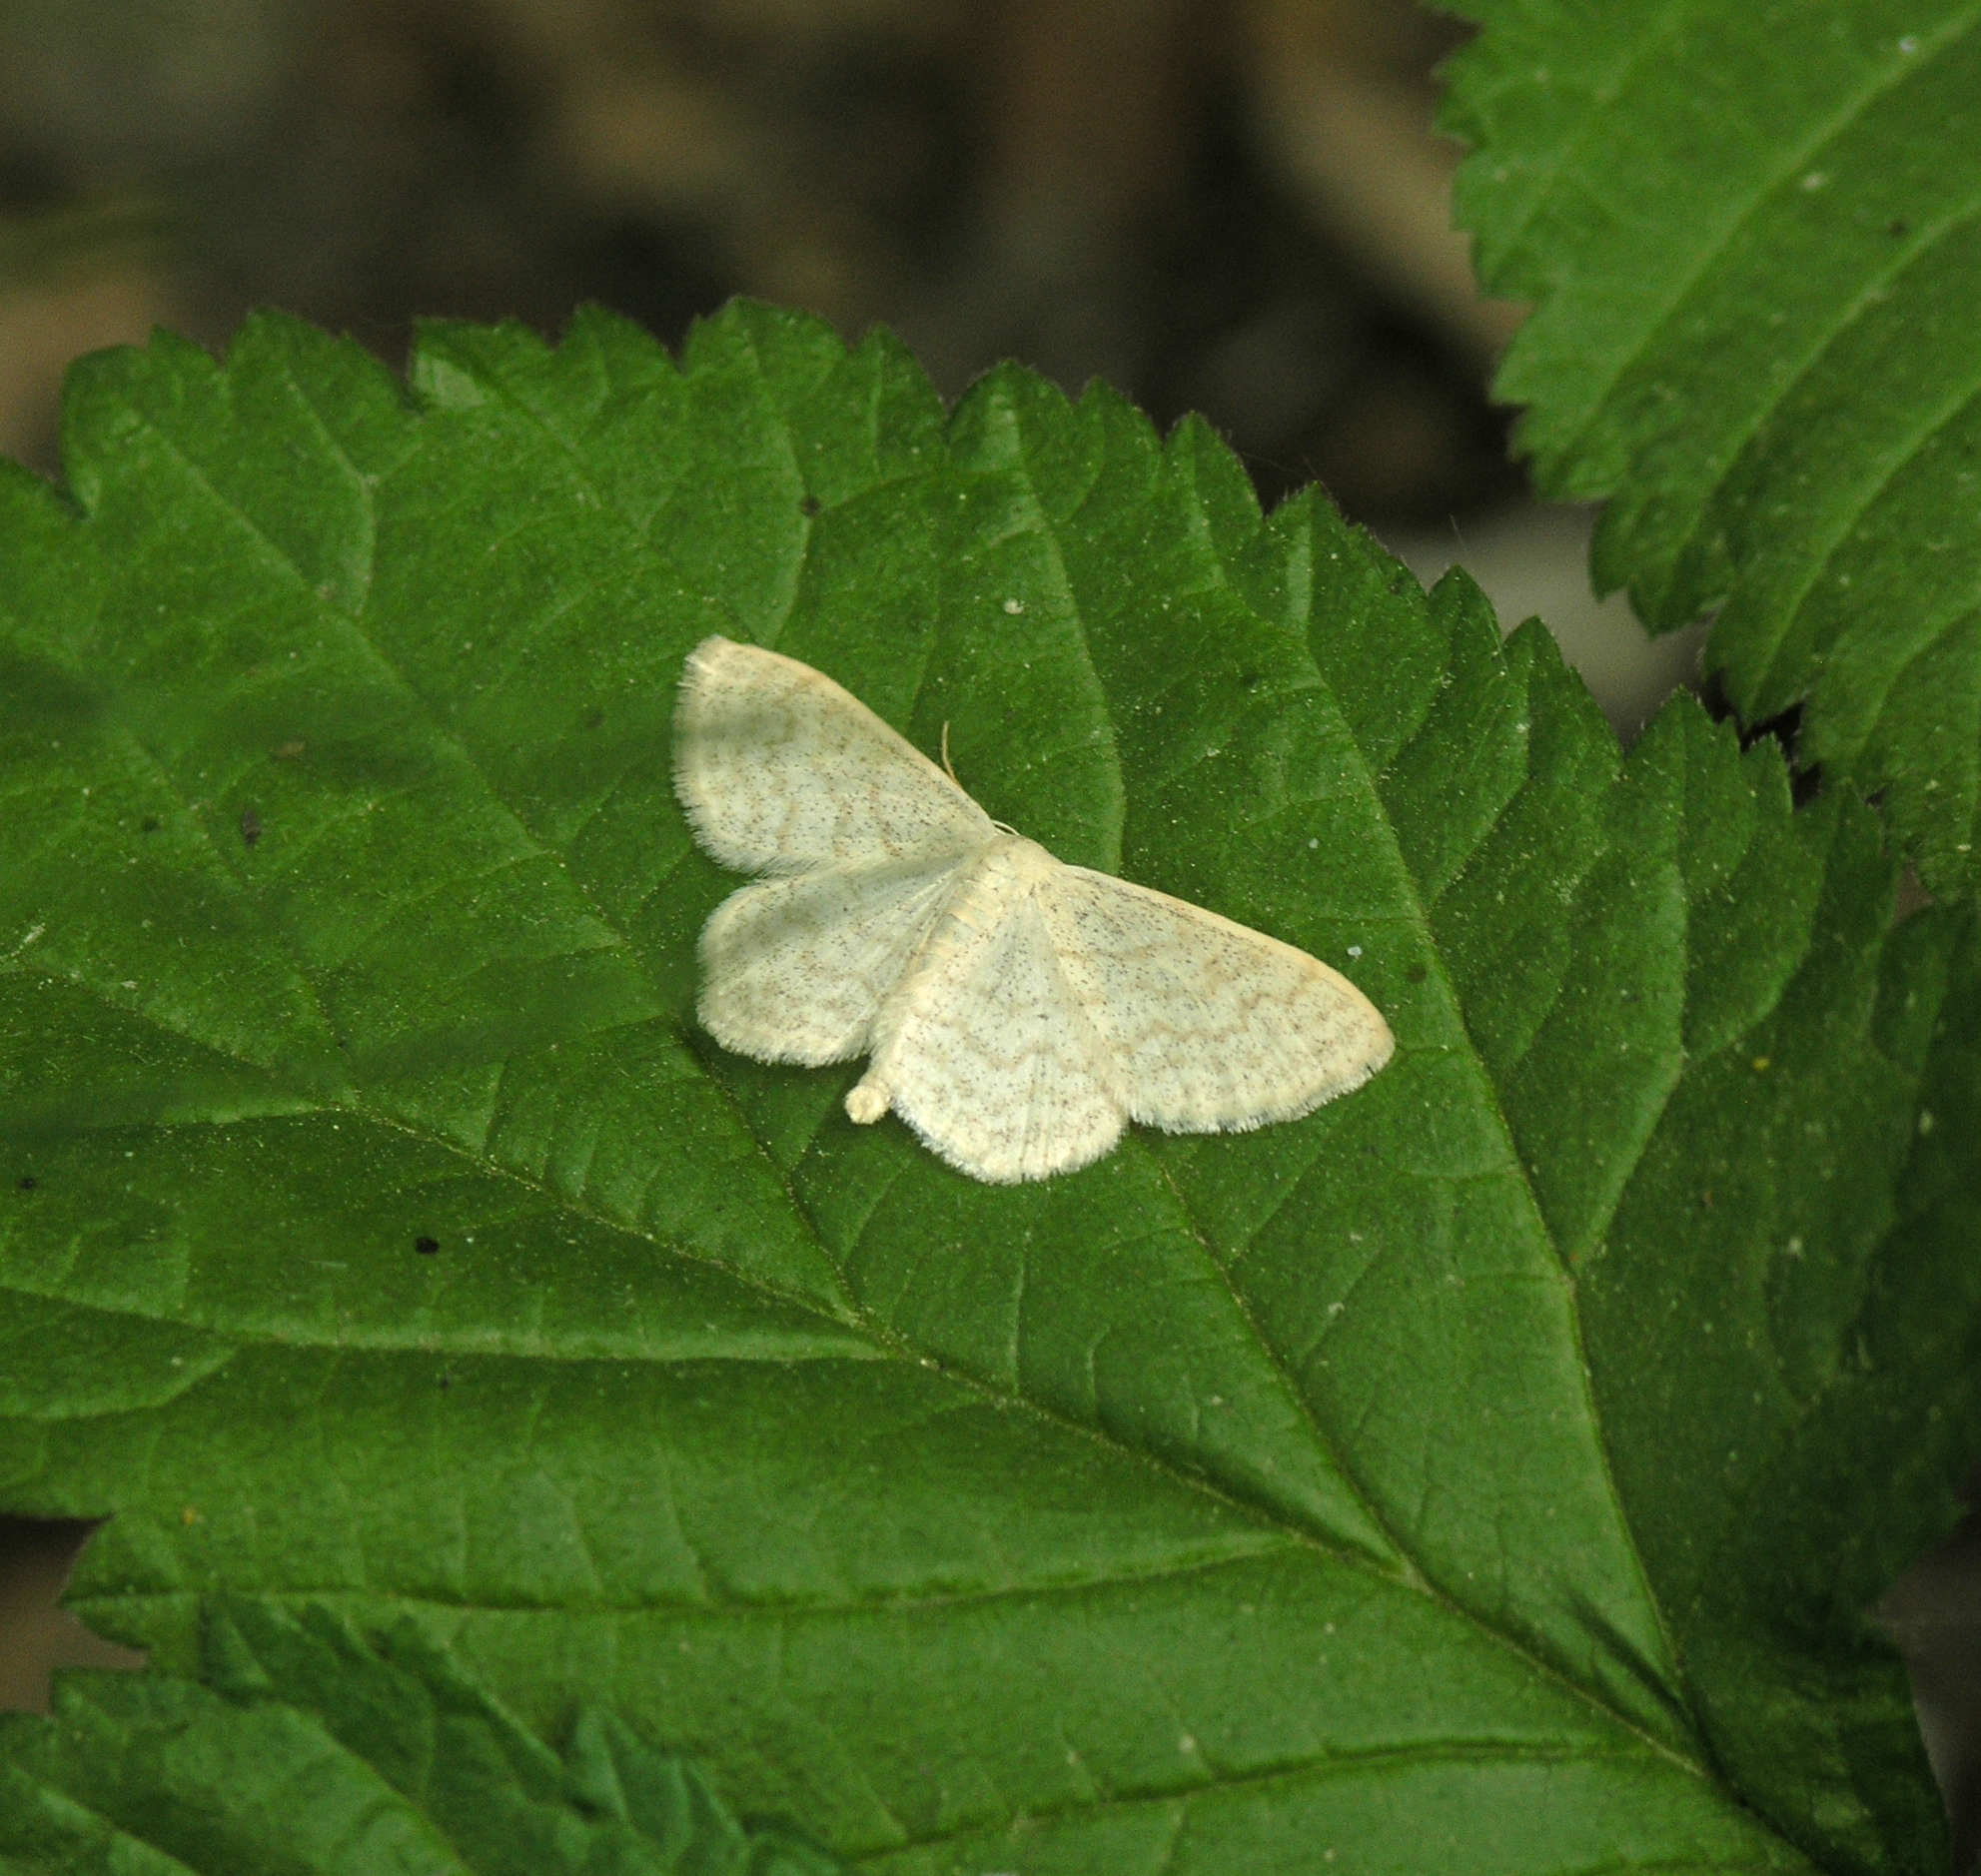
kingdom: Animalia
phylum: Arthropoda
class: Insecta
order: Lepidoptera
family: Geometridae
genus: Scopula
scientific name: Scopula floslactata
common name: Cream wave
